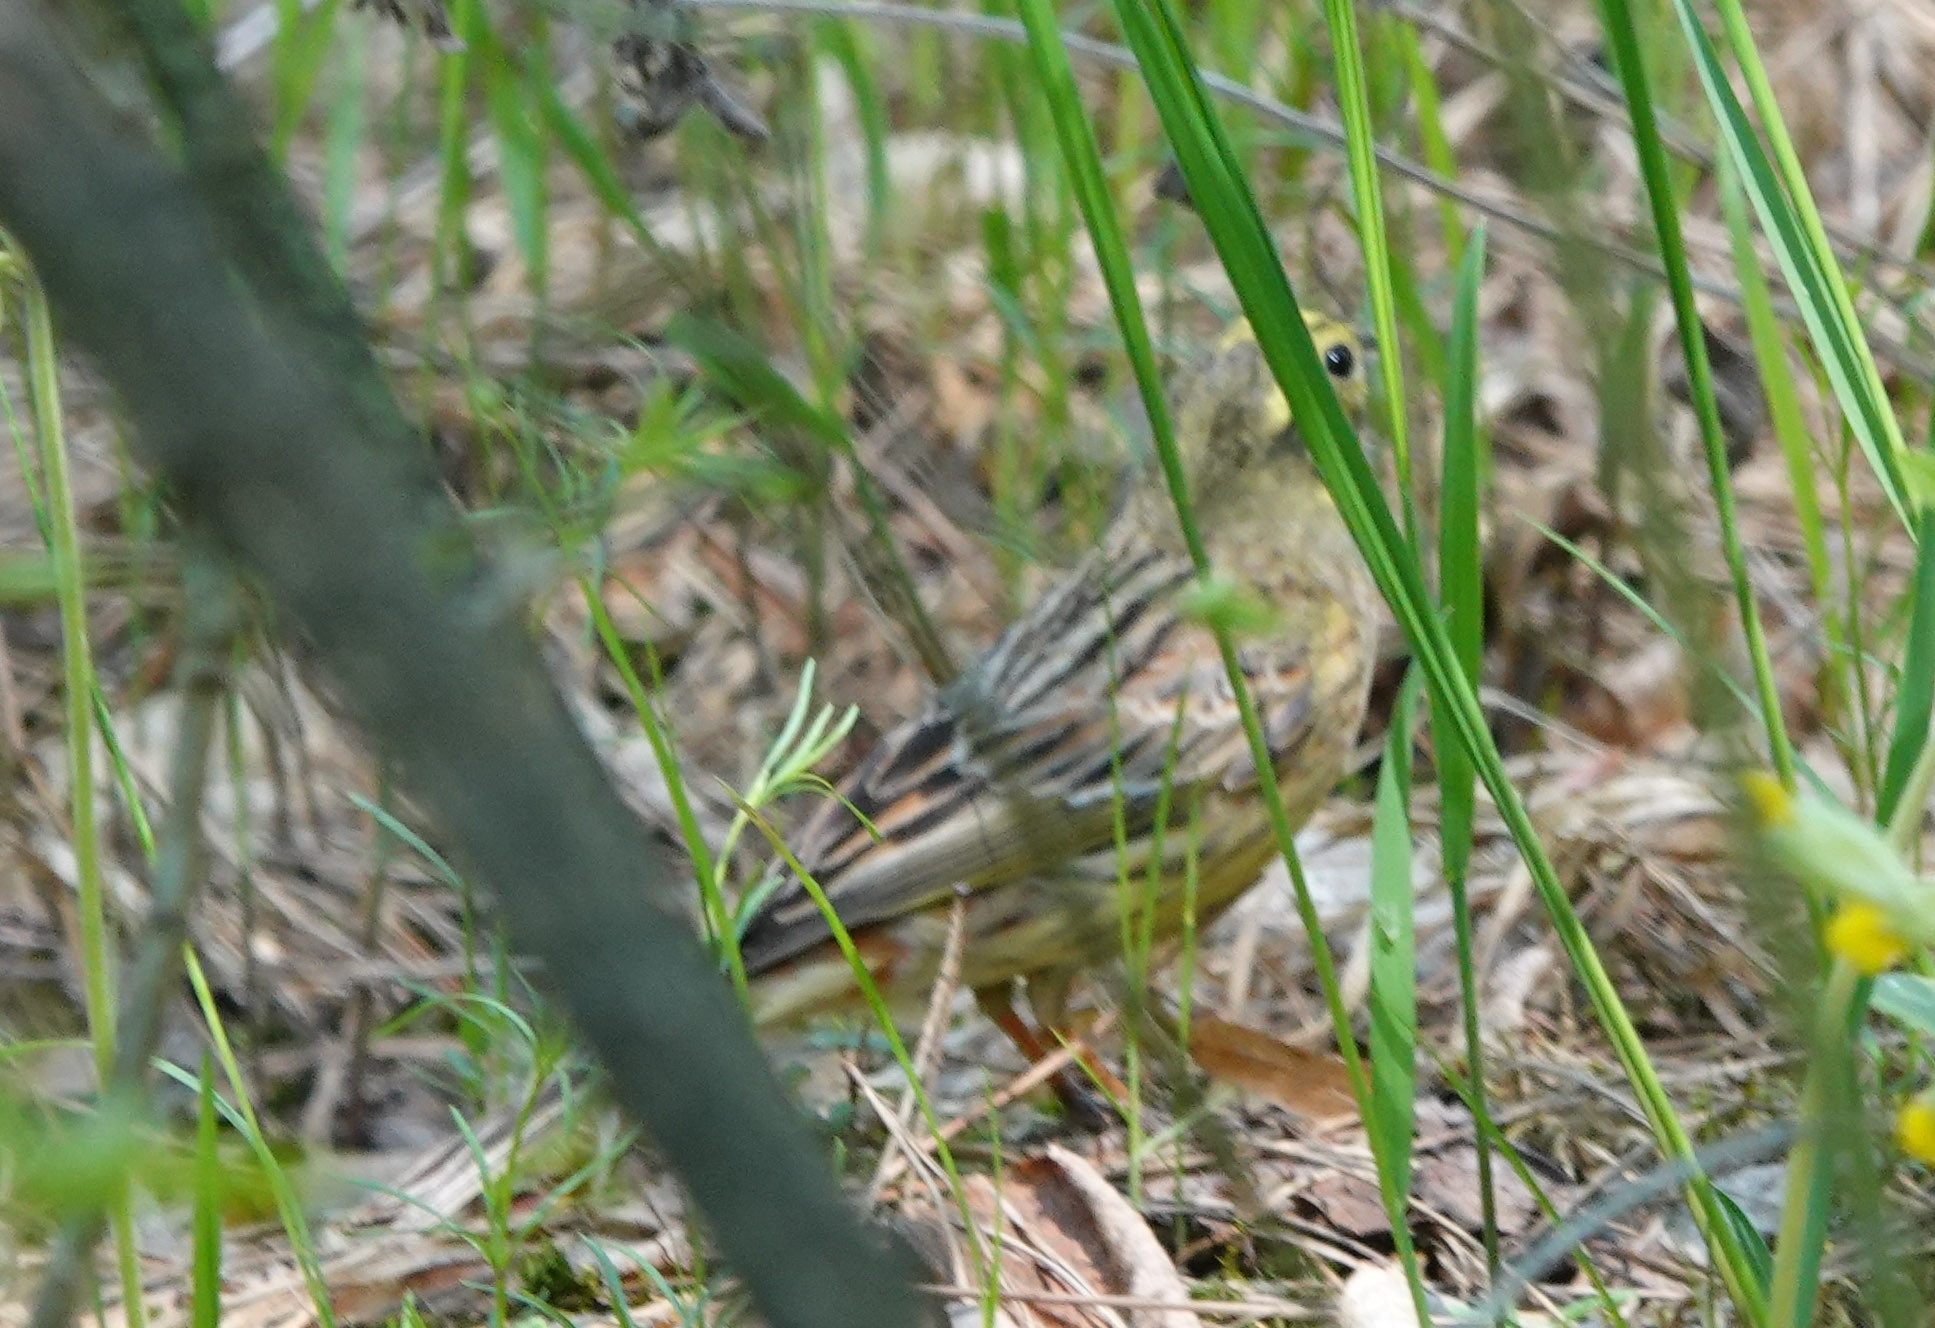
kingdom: Animalia
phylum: Chordata
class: Aves
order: Passeriformes
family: Emberizidae
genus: Emberiza
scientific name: Emberiza citrinella
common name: Yellowhammer
